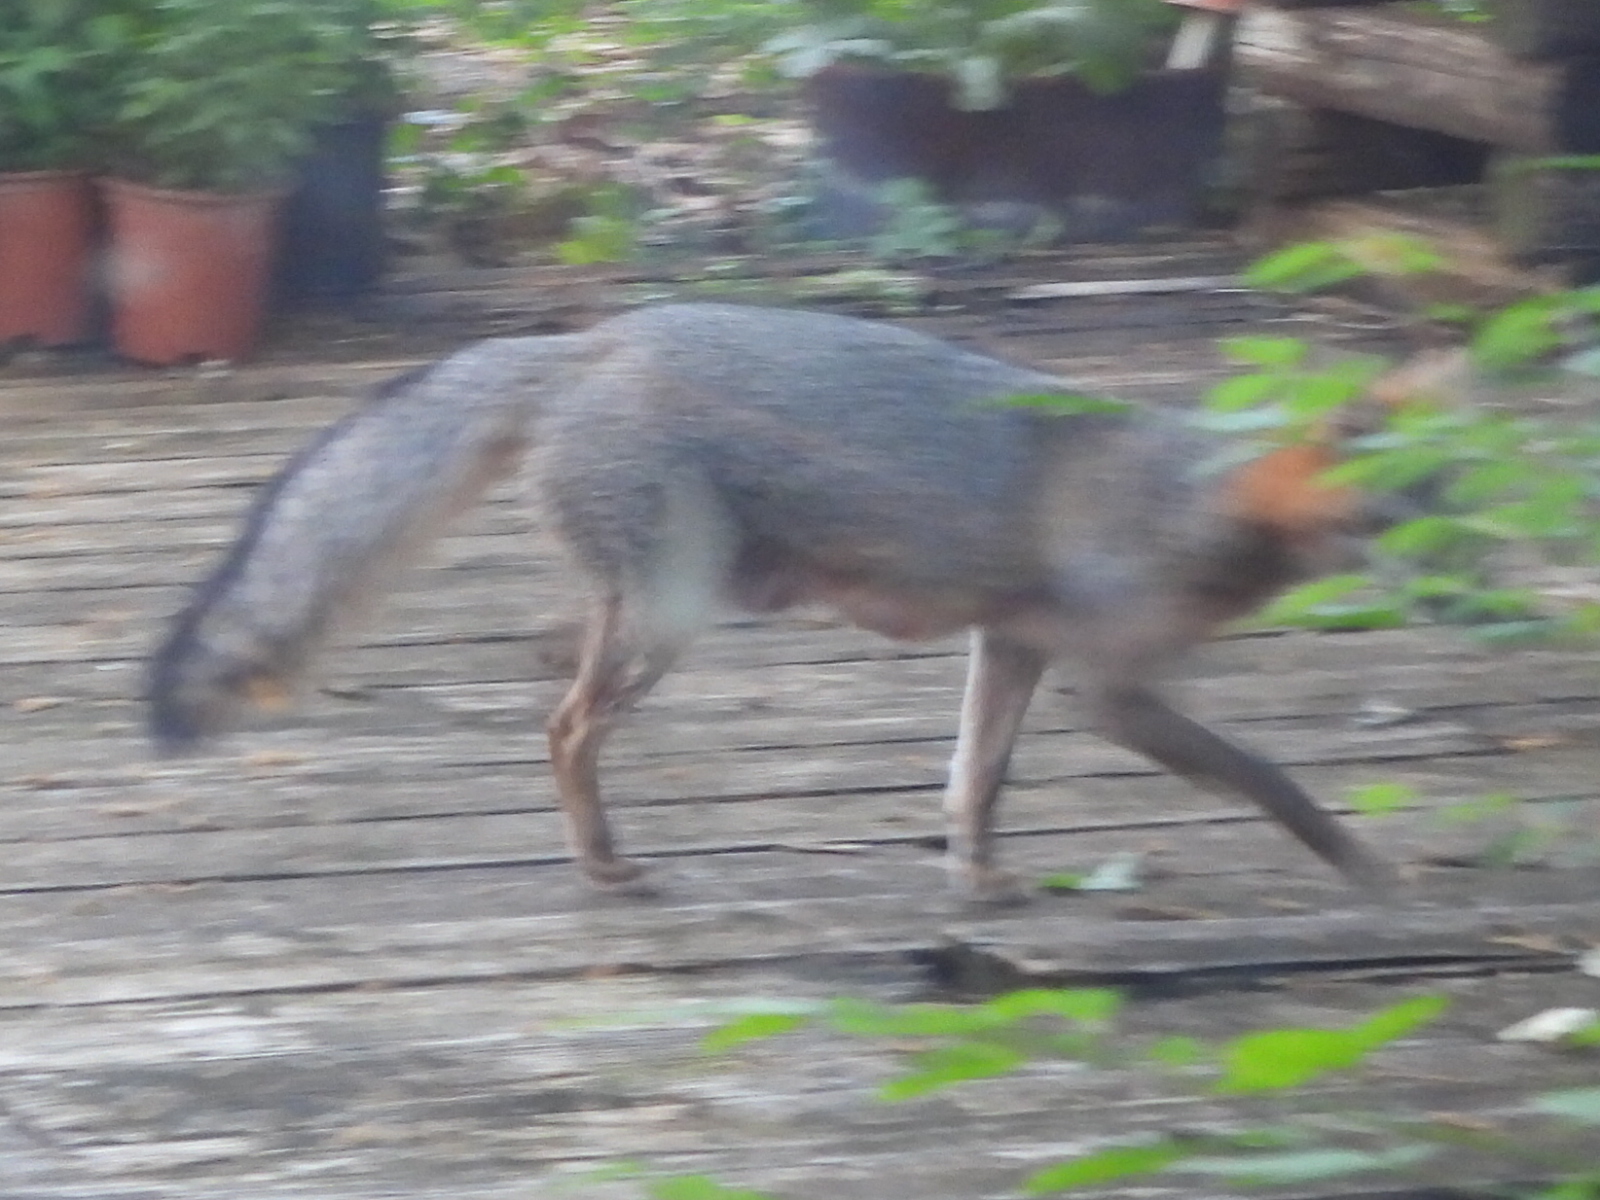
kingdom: Animalia
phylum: Chordata
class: Mammalia
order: Carnivora
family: Canidae
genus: Urocyon
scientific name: Urocyon cinereoargenteus
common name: Gray fox
